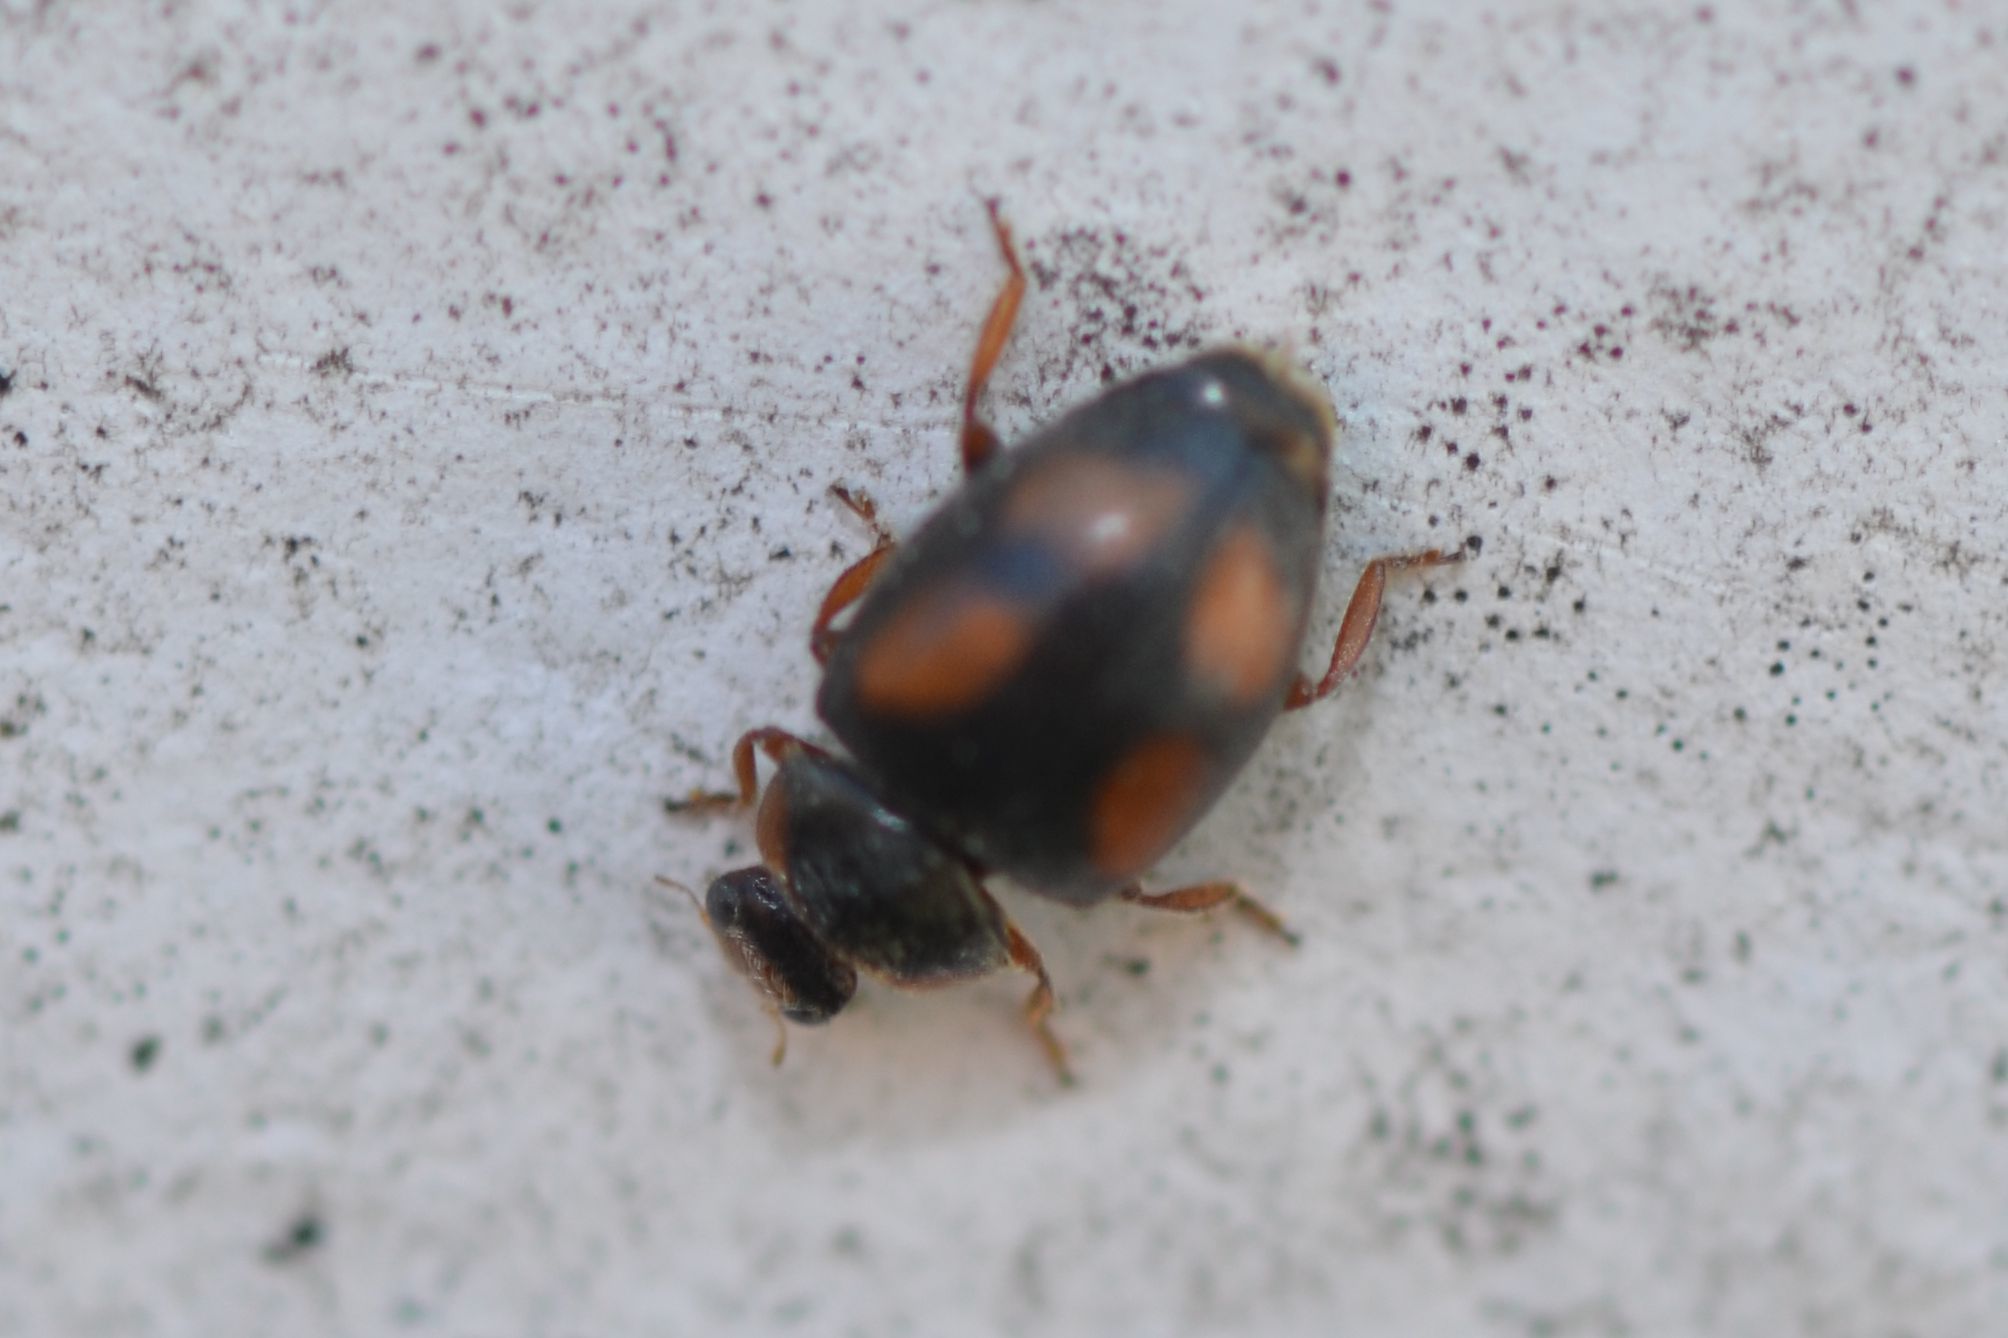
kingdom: Animalia
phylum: Arthropoda
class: Insecta
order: Coleoptera
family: Coccinellidae
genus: Scymnus
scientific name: Scymnus frontalis
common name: Ladybird beetle
